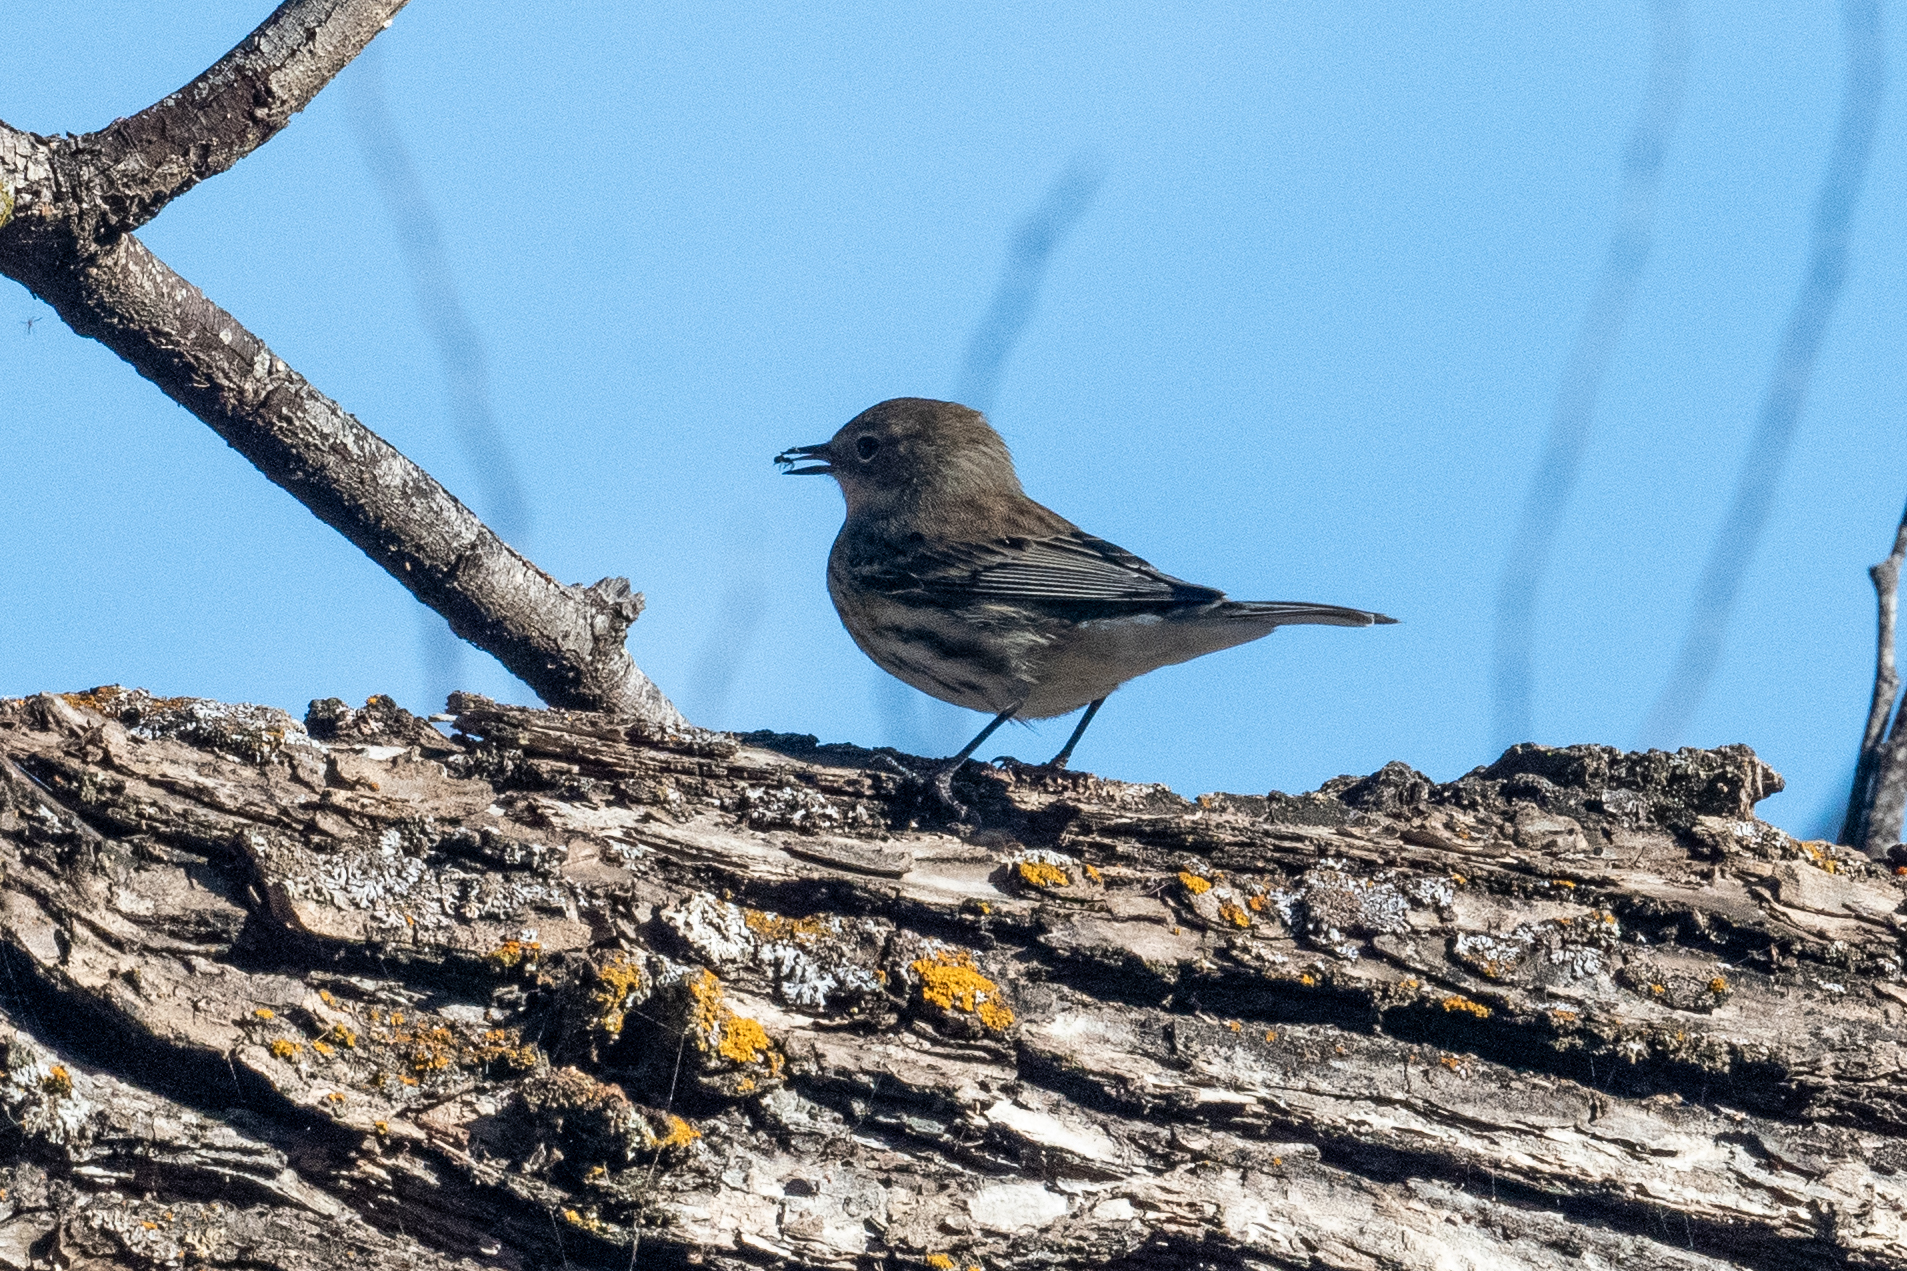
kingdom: Animalia
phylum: Chordata
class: Aves
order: Passeriformes
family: Parulidae
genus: Setophaga
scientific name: Setophaga coronata
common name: Myrtle warbler
